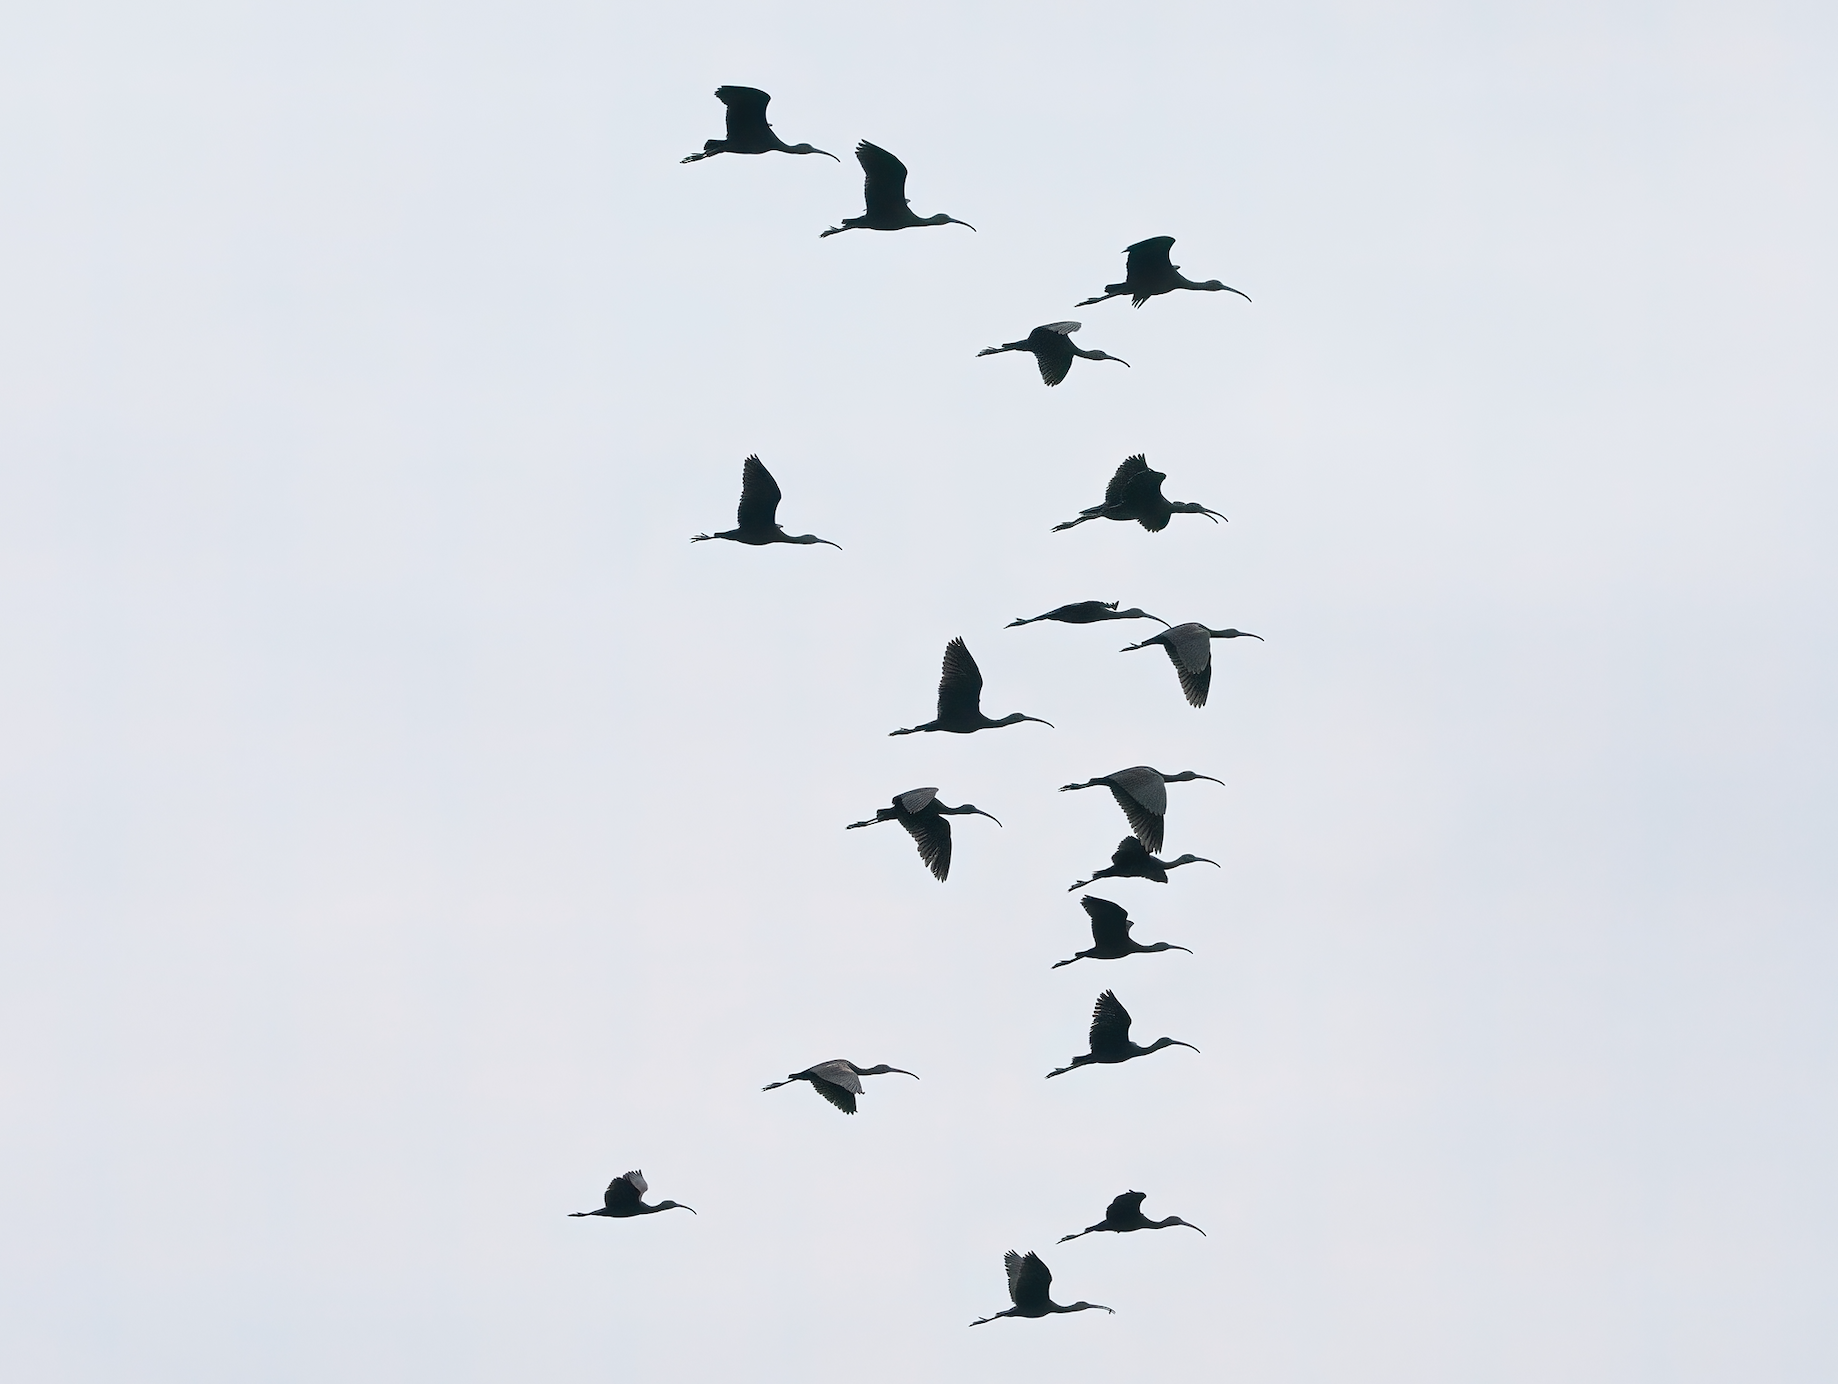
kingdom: Animalia
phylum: Chordata
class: Aves
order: Pelecaniformes
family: Threskiornithidae
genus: Plegadis
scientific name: Plegadis falcinellus
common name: Glossy ibis
